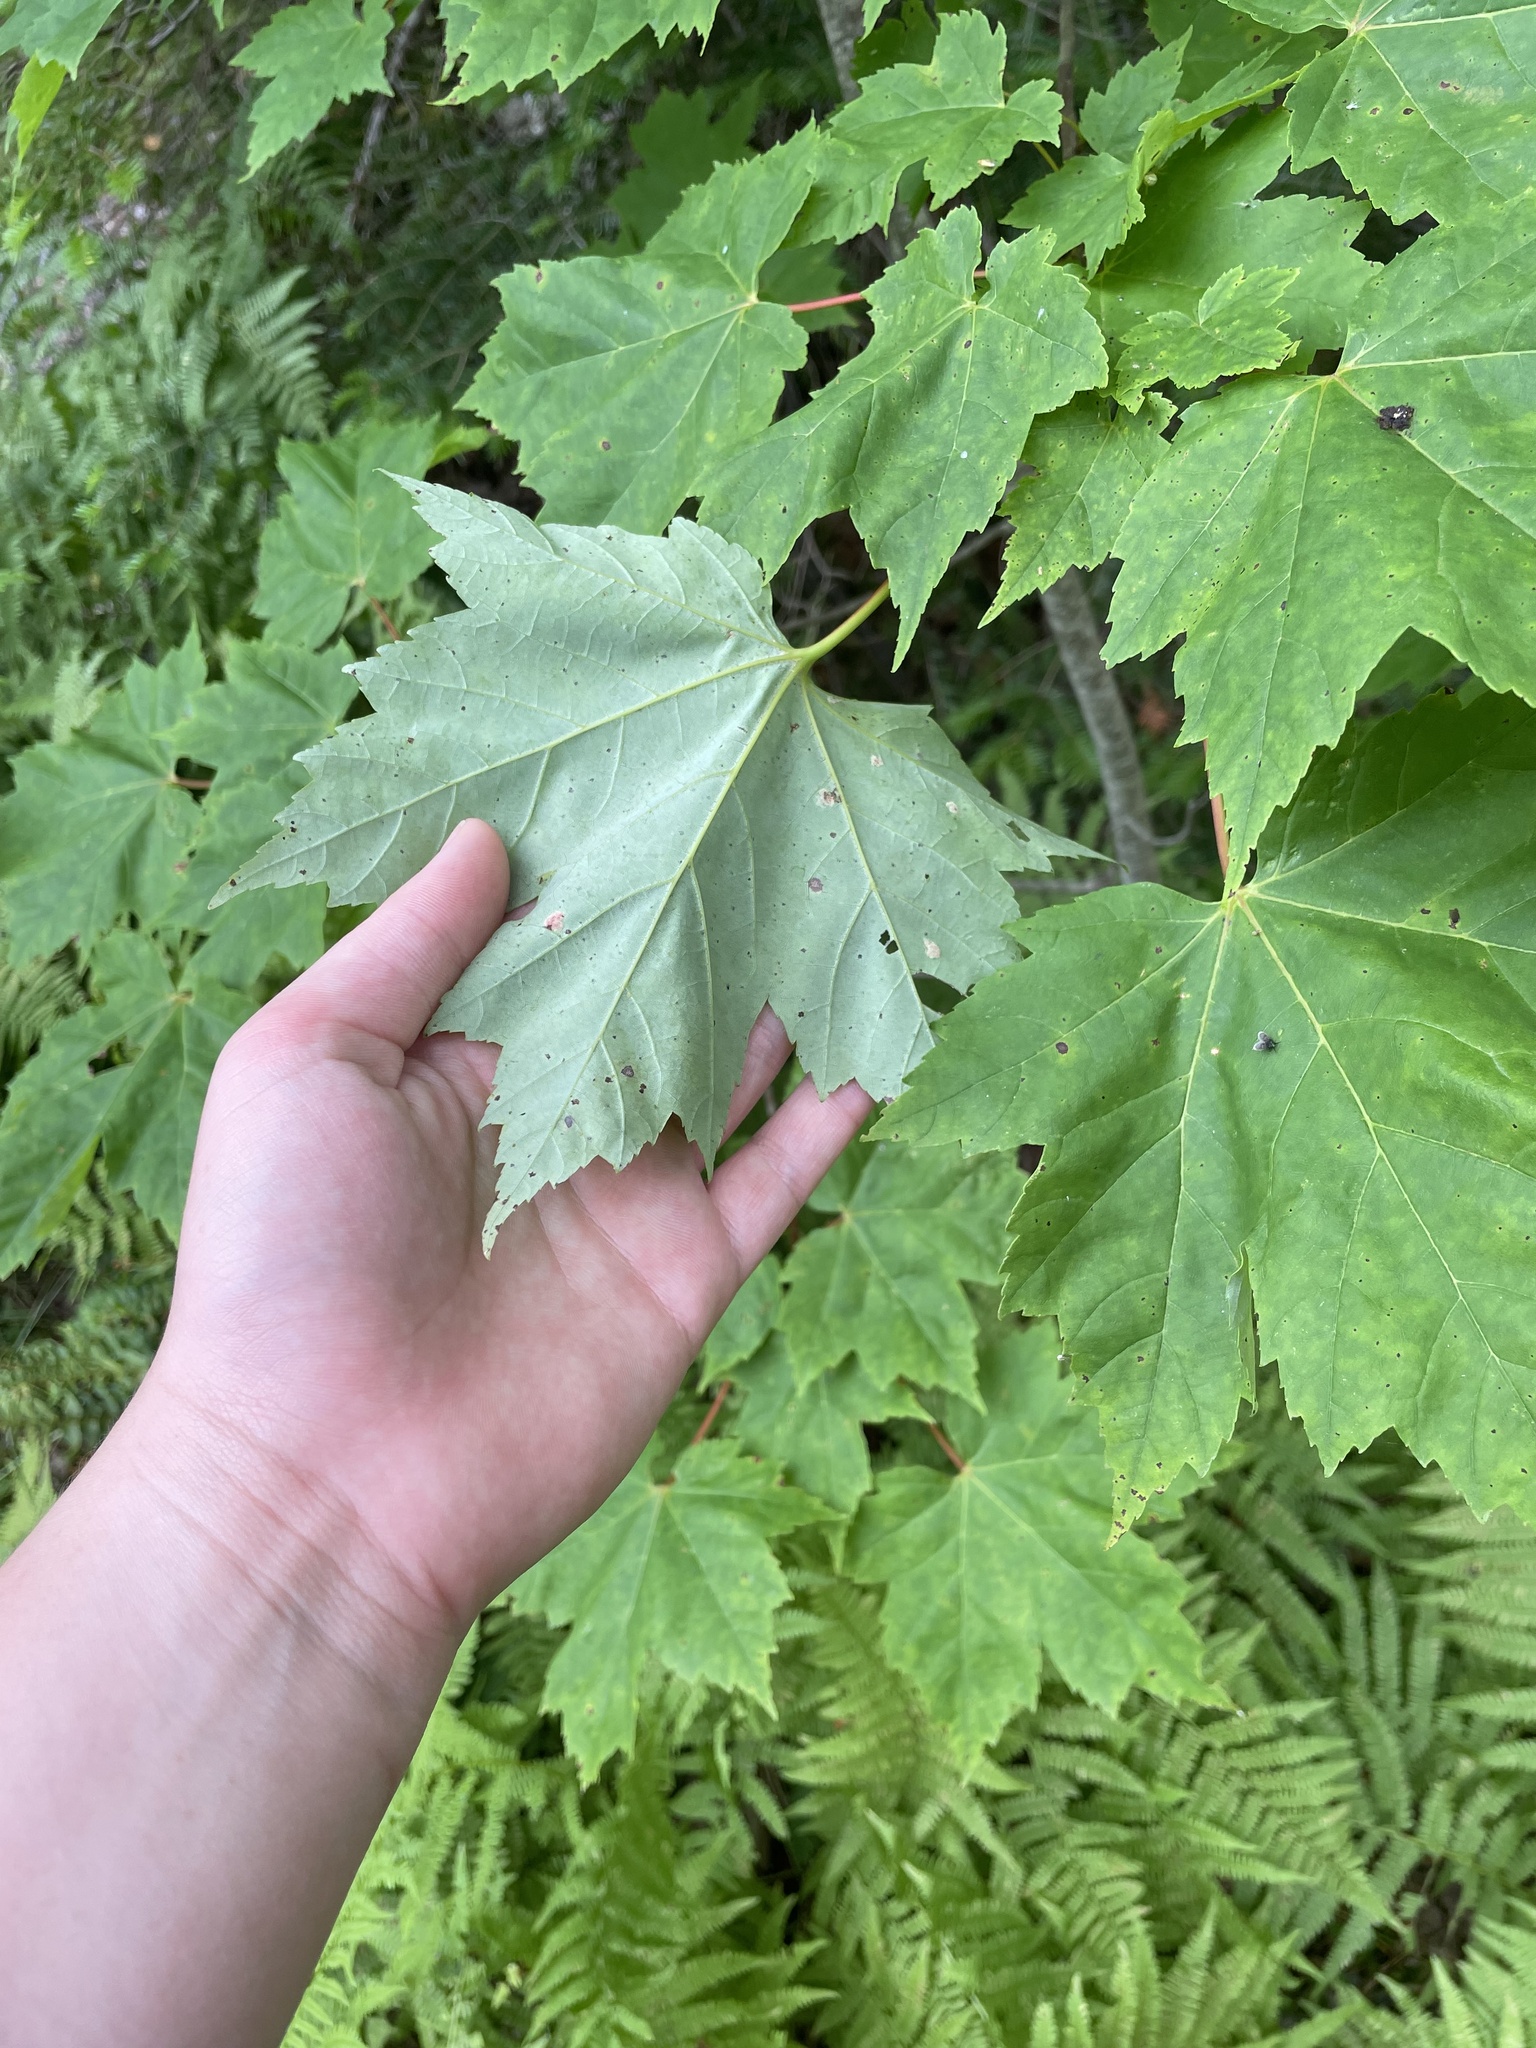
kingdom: Plantae
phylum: Tracheophyta
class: Magnoliopsida
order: Sapindales
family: Sapindaceae
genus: Acer
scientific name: Acer rubrum
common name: Red maple
